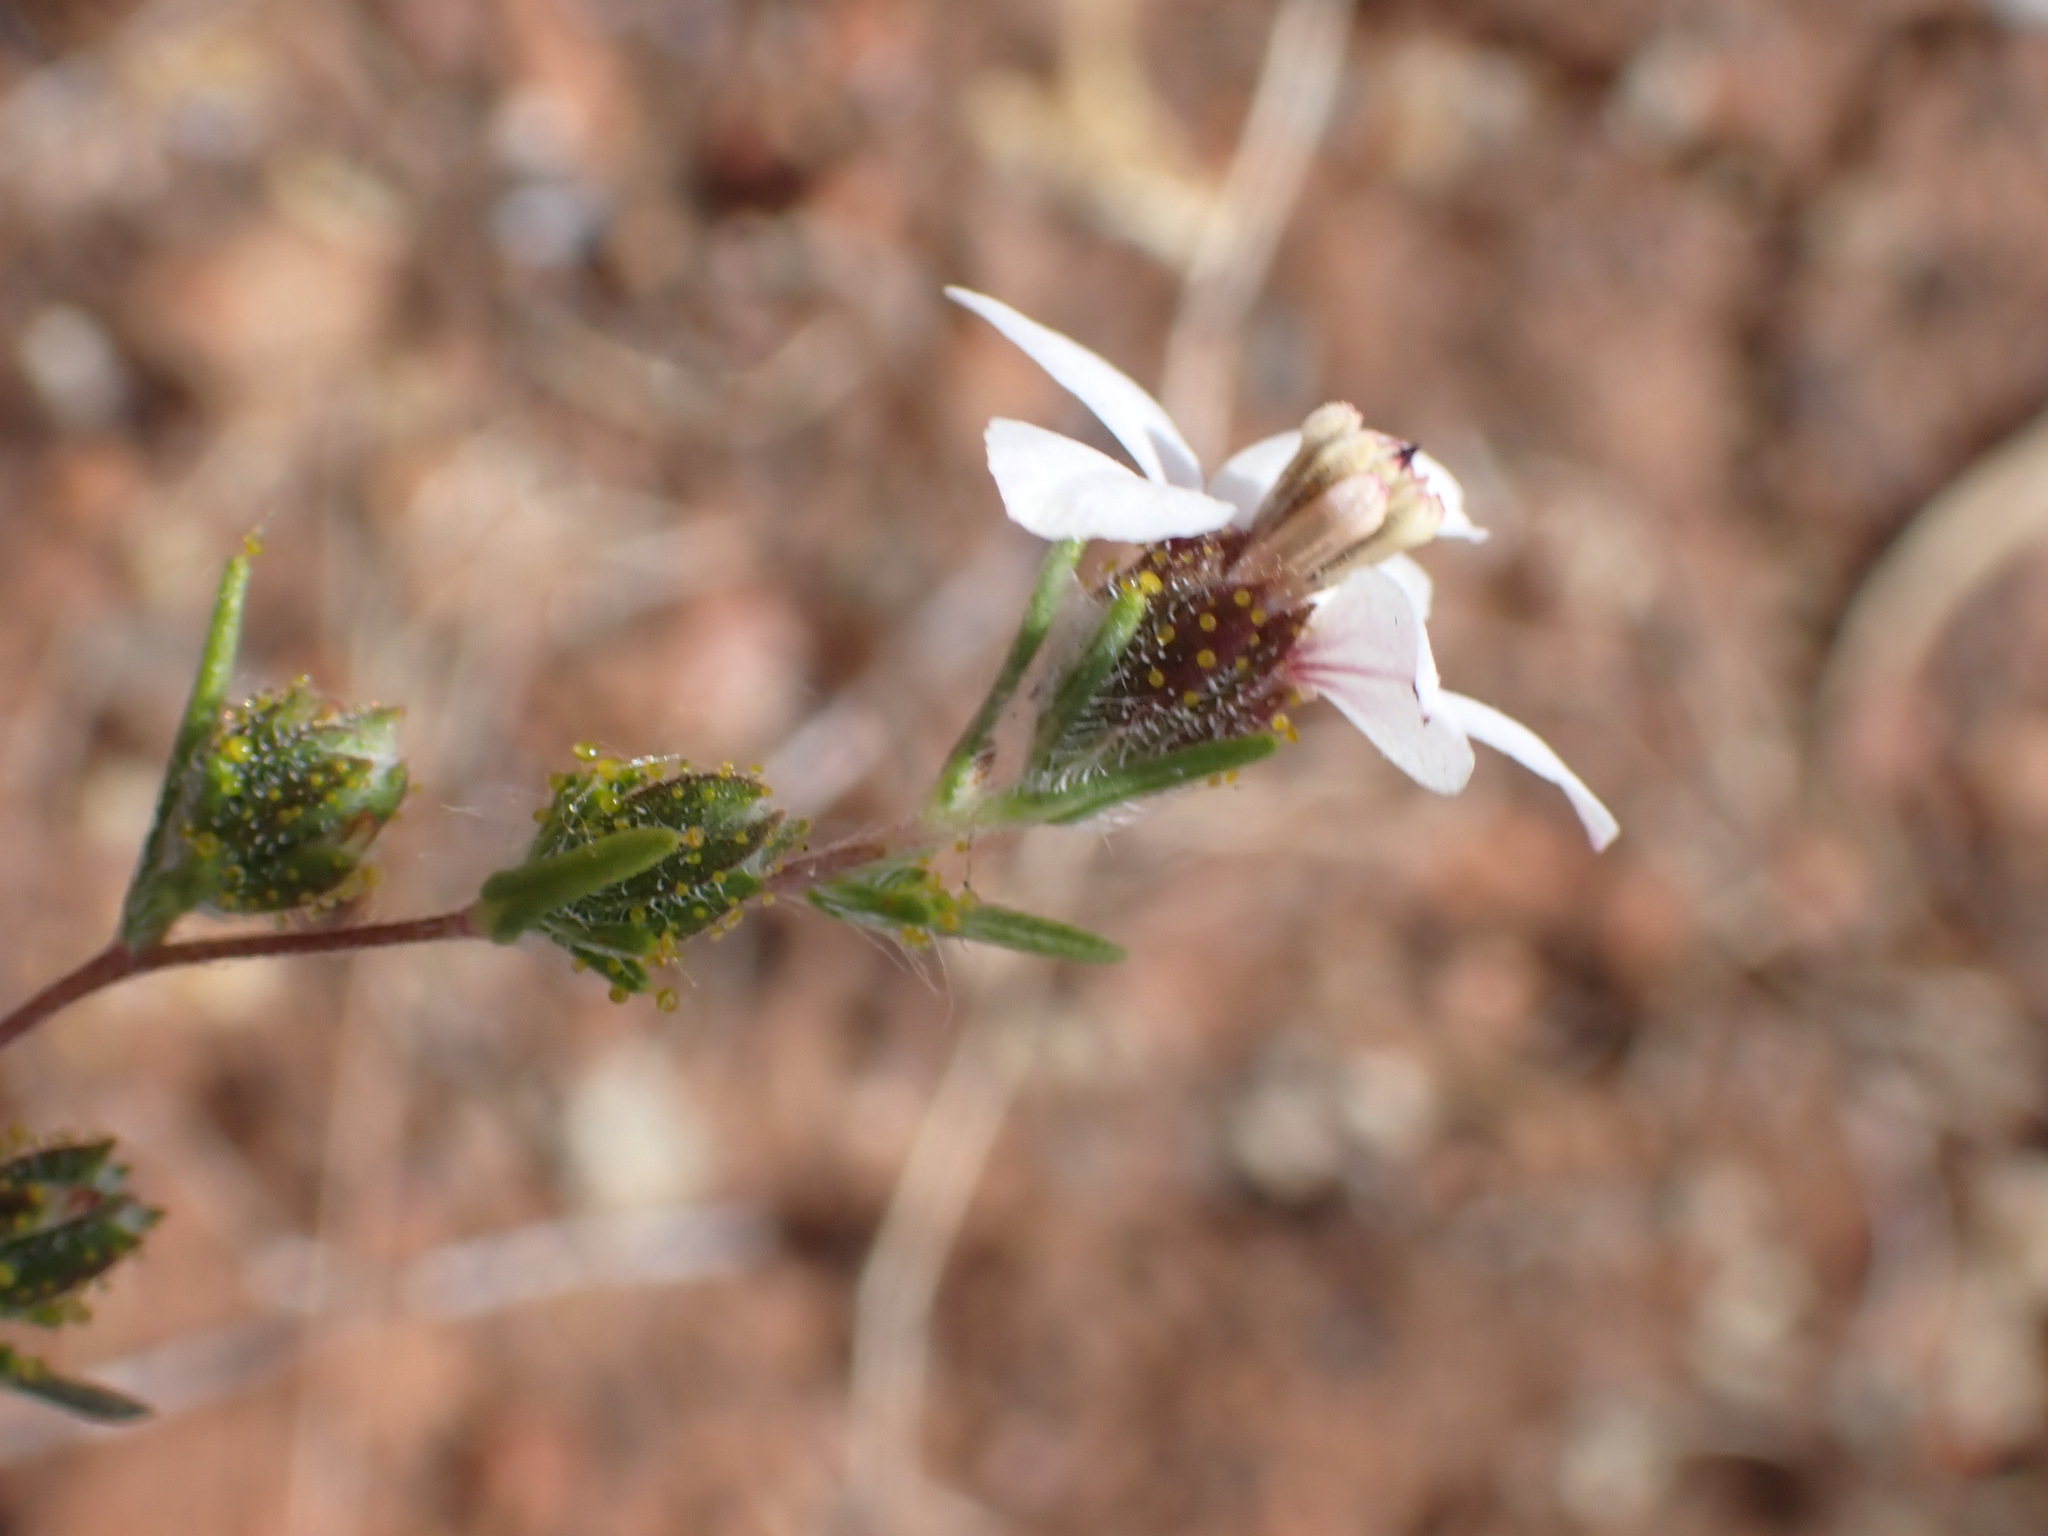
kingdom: Plantae
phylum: Tracheophyta
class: Magnoliopsida
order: Asterales
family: Asteraceae
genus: Calycadenia
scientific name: Calycadenia pauciflora
